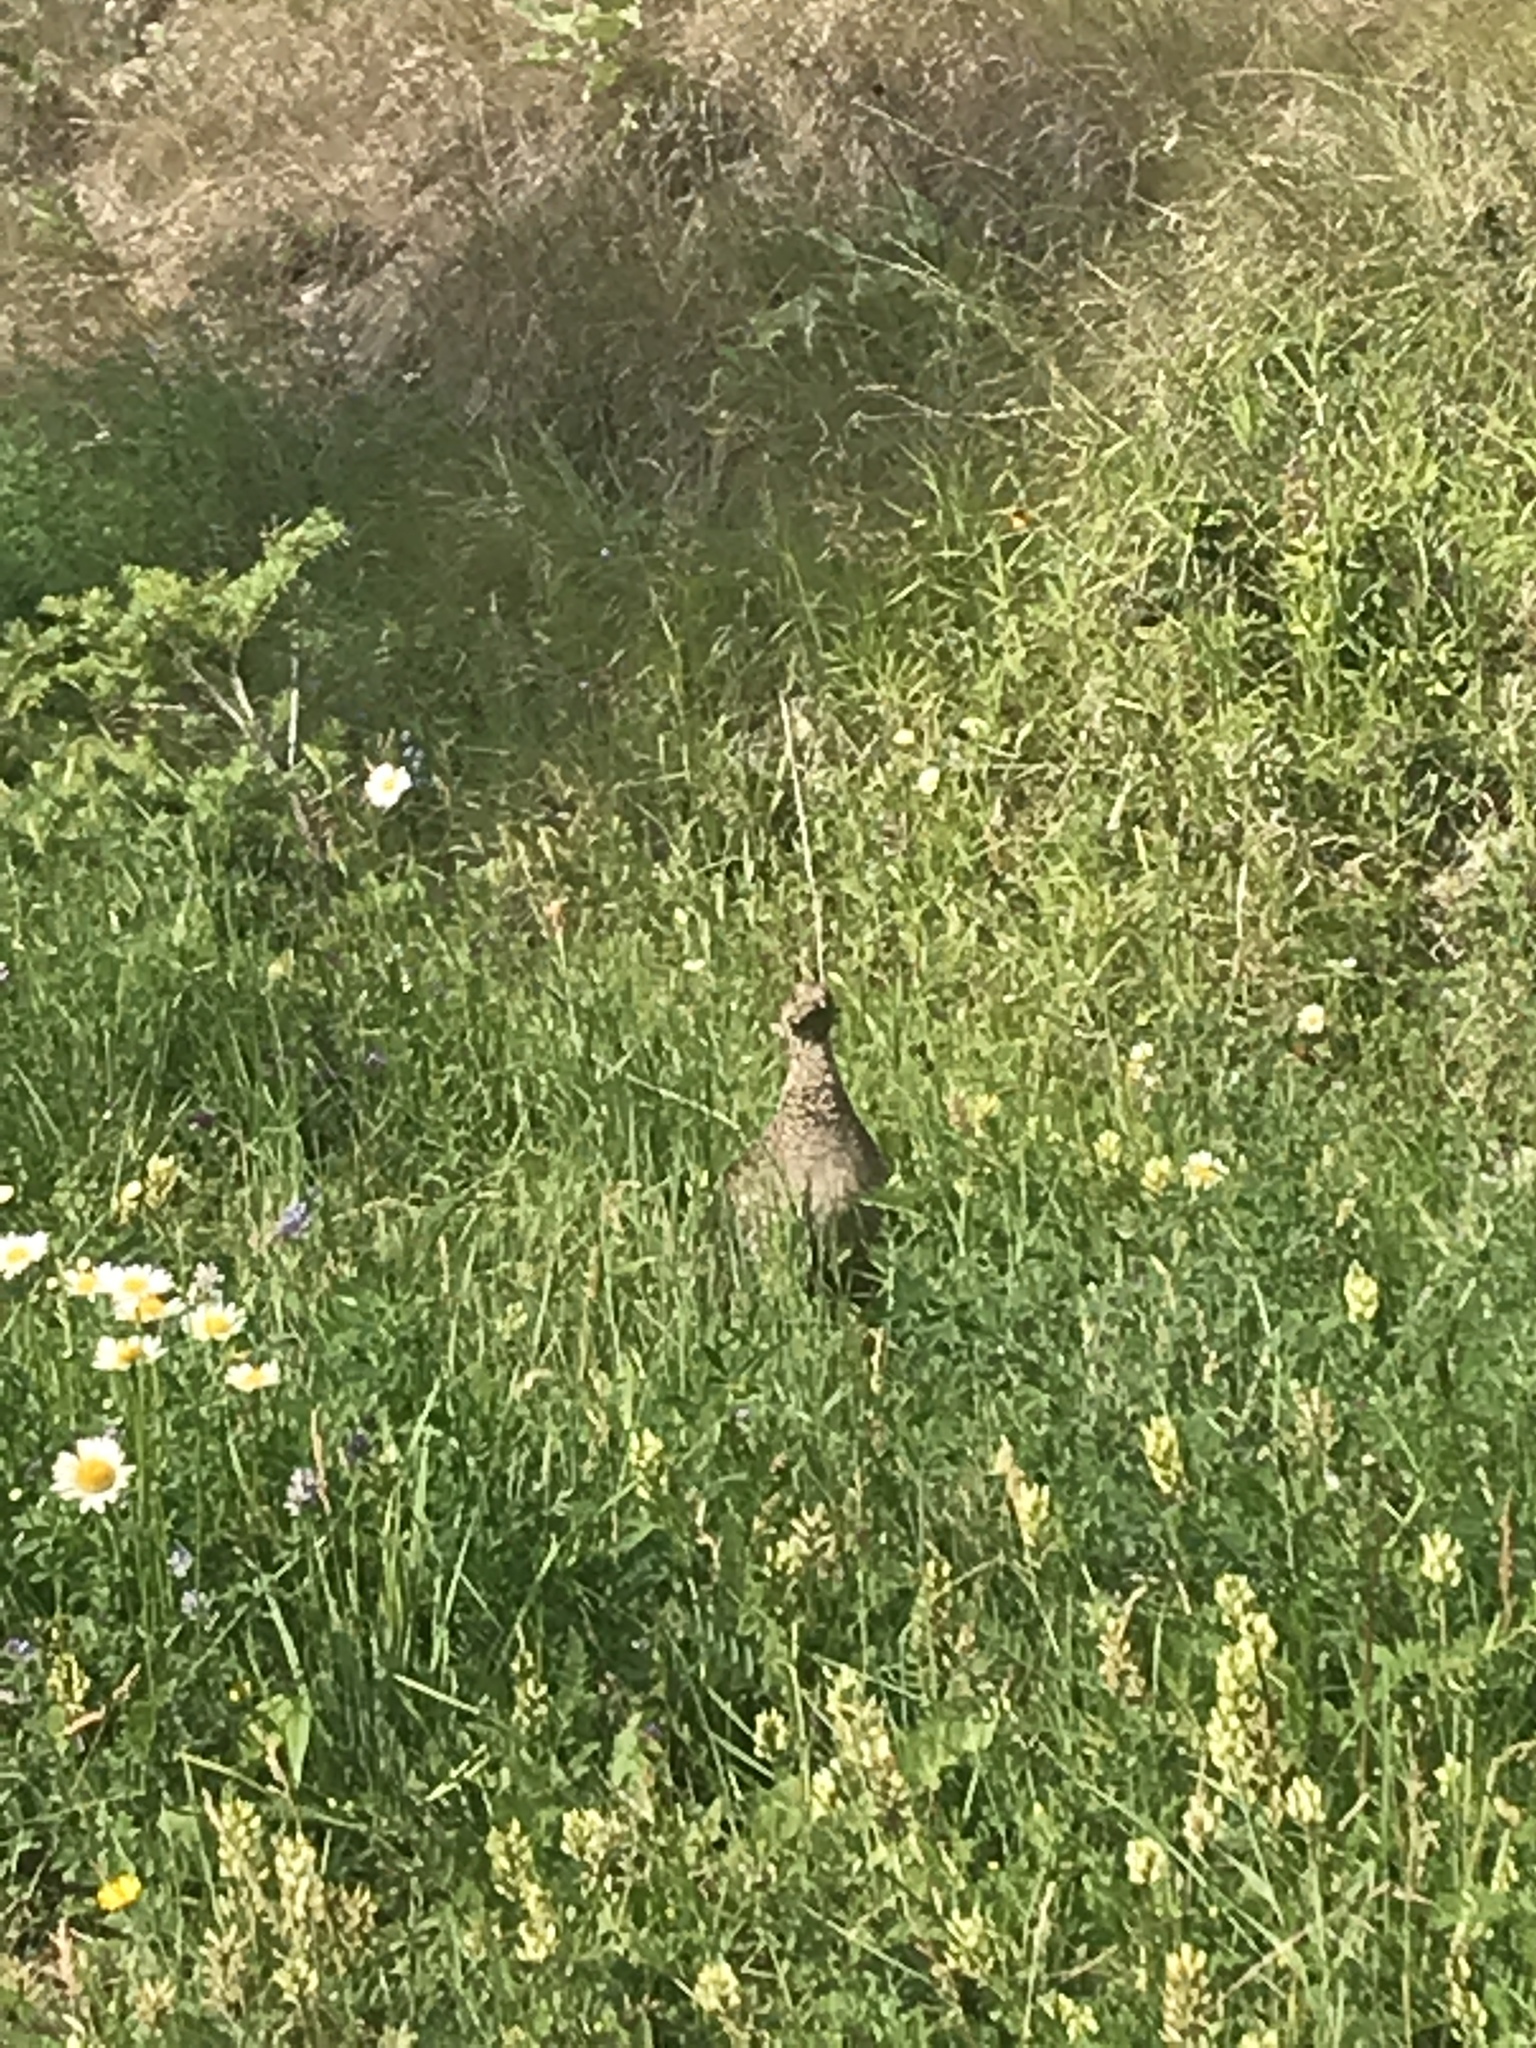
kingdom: Animalia
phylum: Chordata
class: Aves
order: Galliformes
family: Phasianidae
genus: Dendragapus
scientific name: Dendragapus obscurus
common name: Dusky grouse
